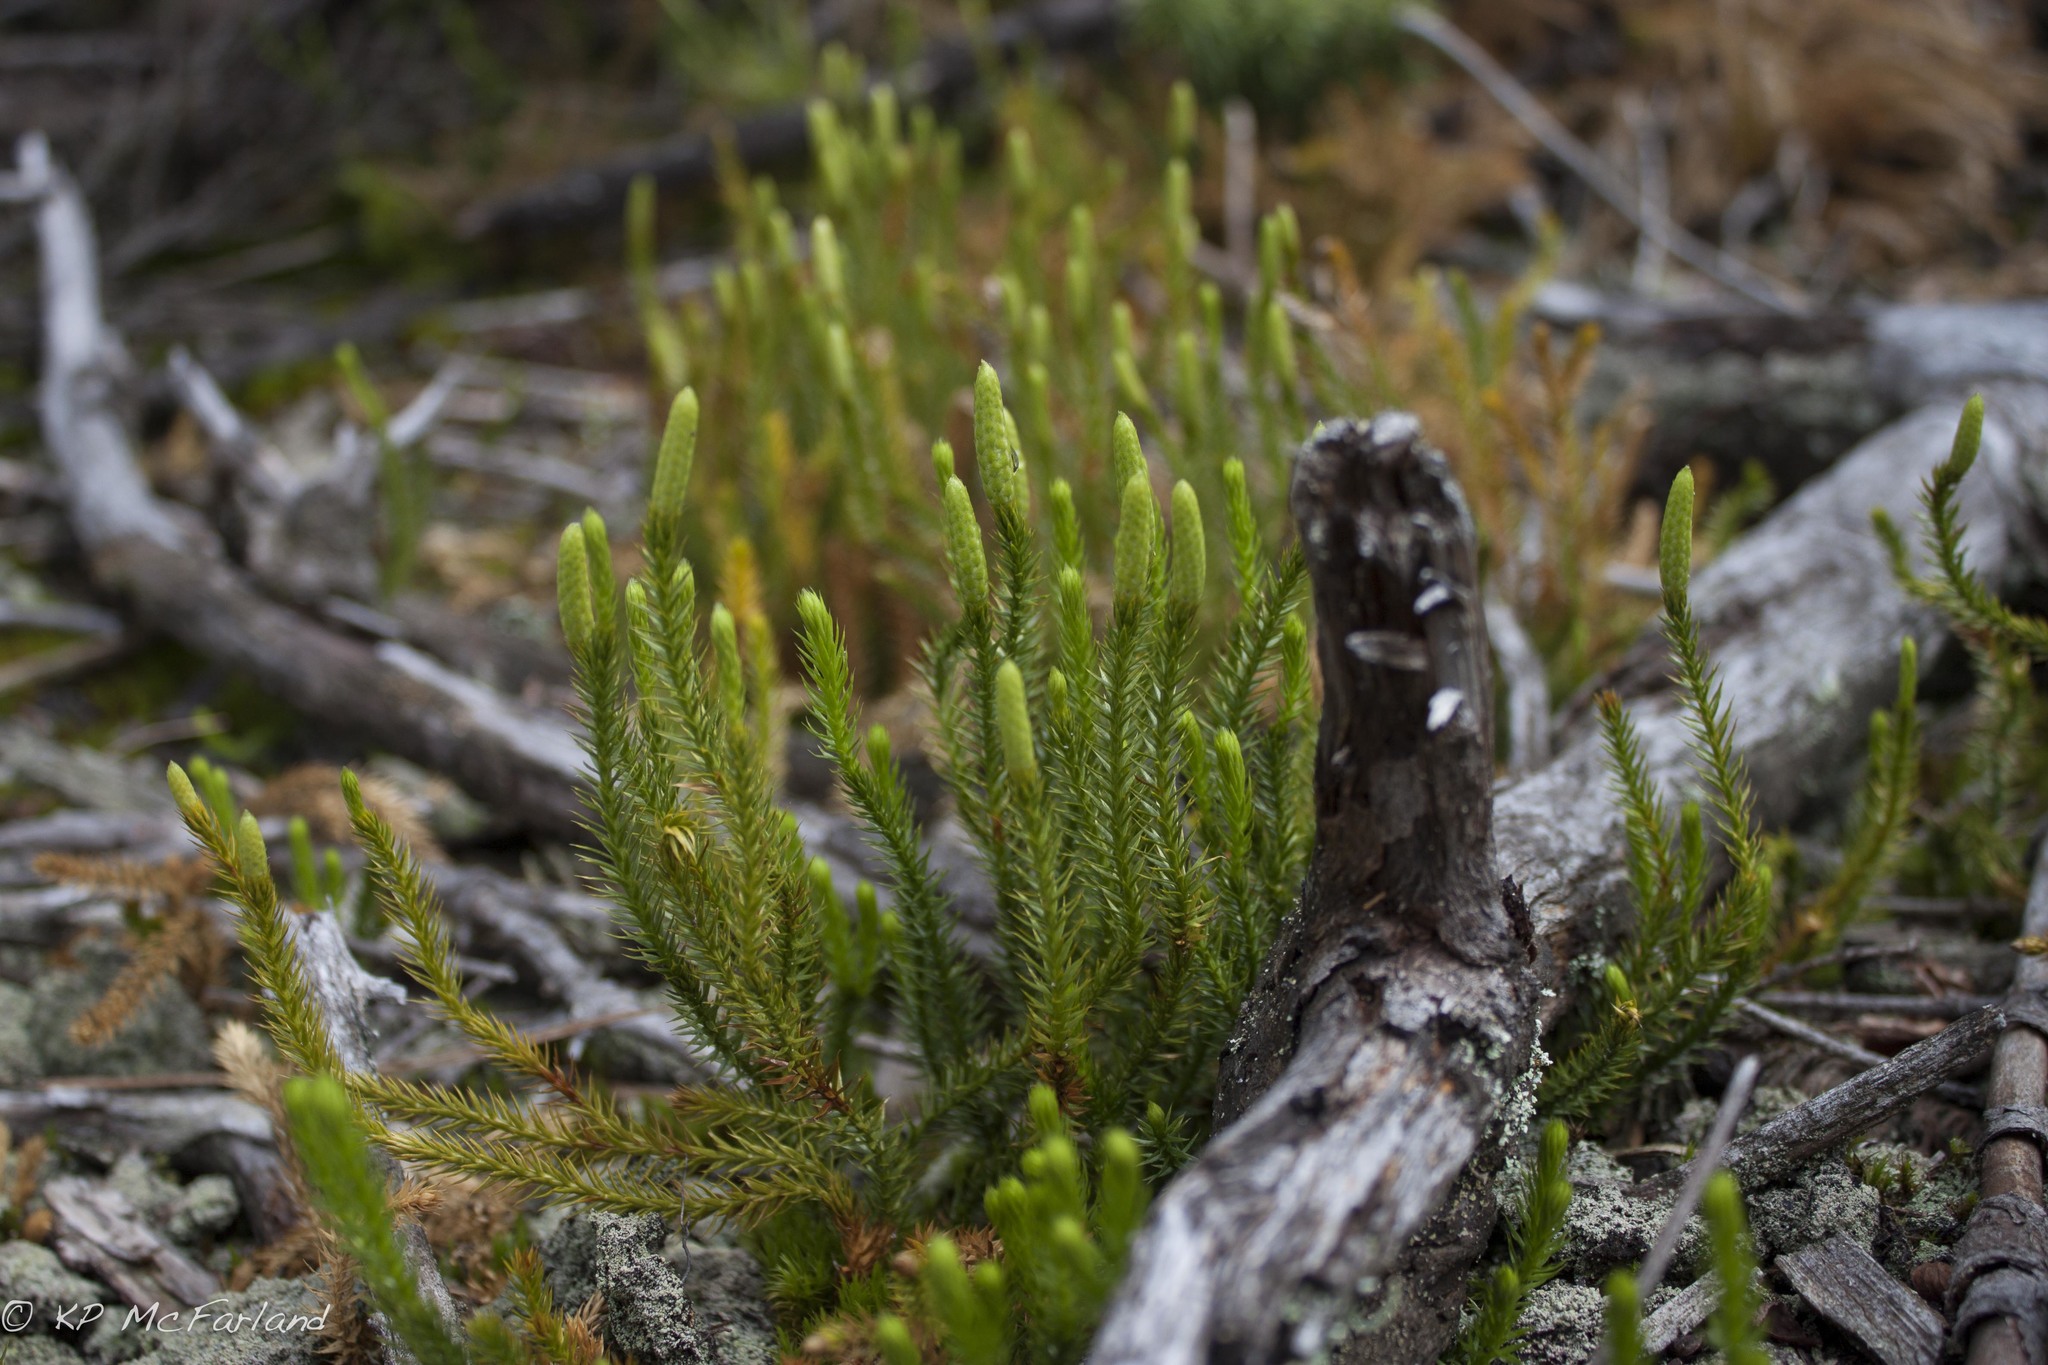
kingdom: Plantae
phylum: Tracheophyta
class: Lycopodiopsida
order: Lycopodiales
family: Lycopodiaceae
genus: Spinulum
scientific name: Spinulum annotinum
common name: Interrupted club-moss
